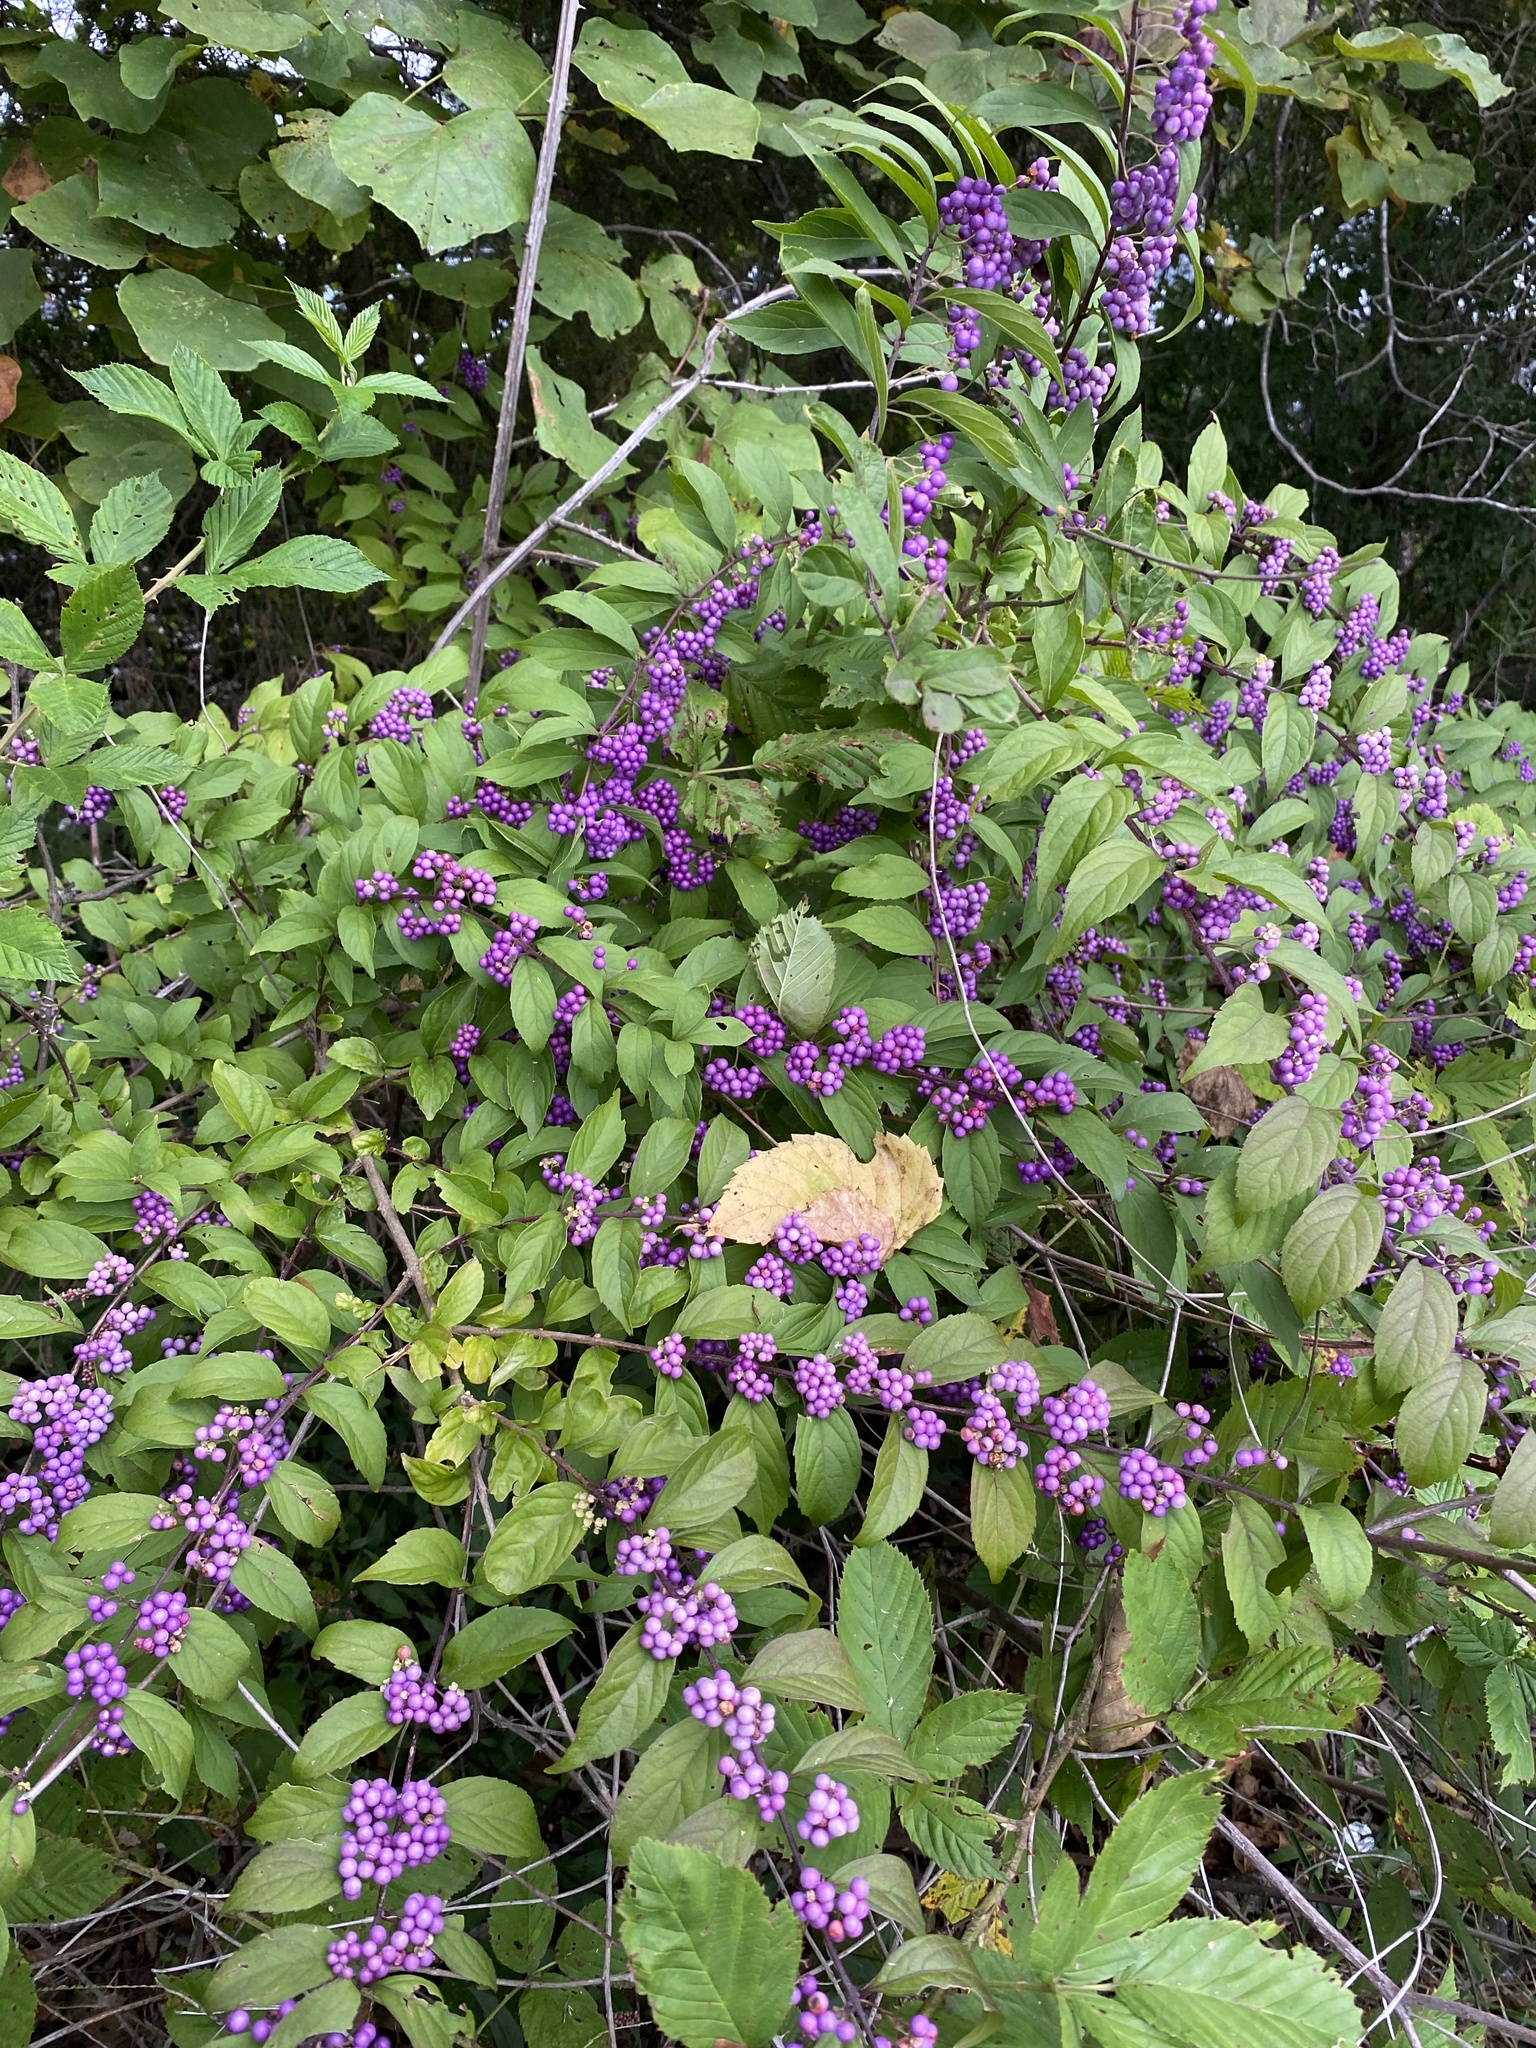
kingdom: Plantae
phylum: Tracheophyta
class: Magnoliopsida
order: Lamiales
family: Lamiaceae
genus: Callicarpa
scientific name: Callicarpa dichotoma
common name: Purple beauty-berry
